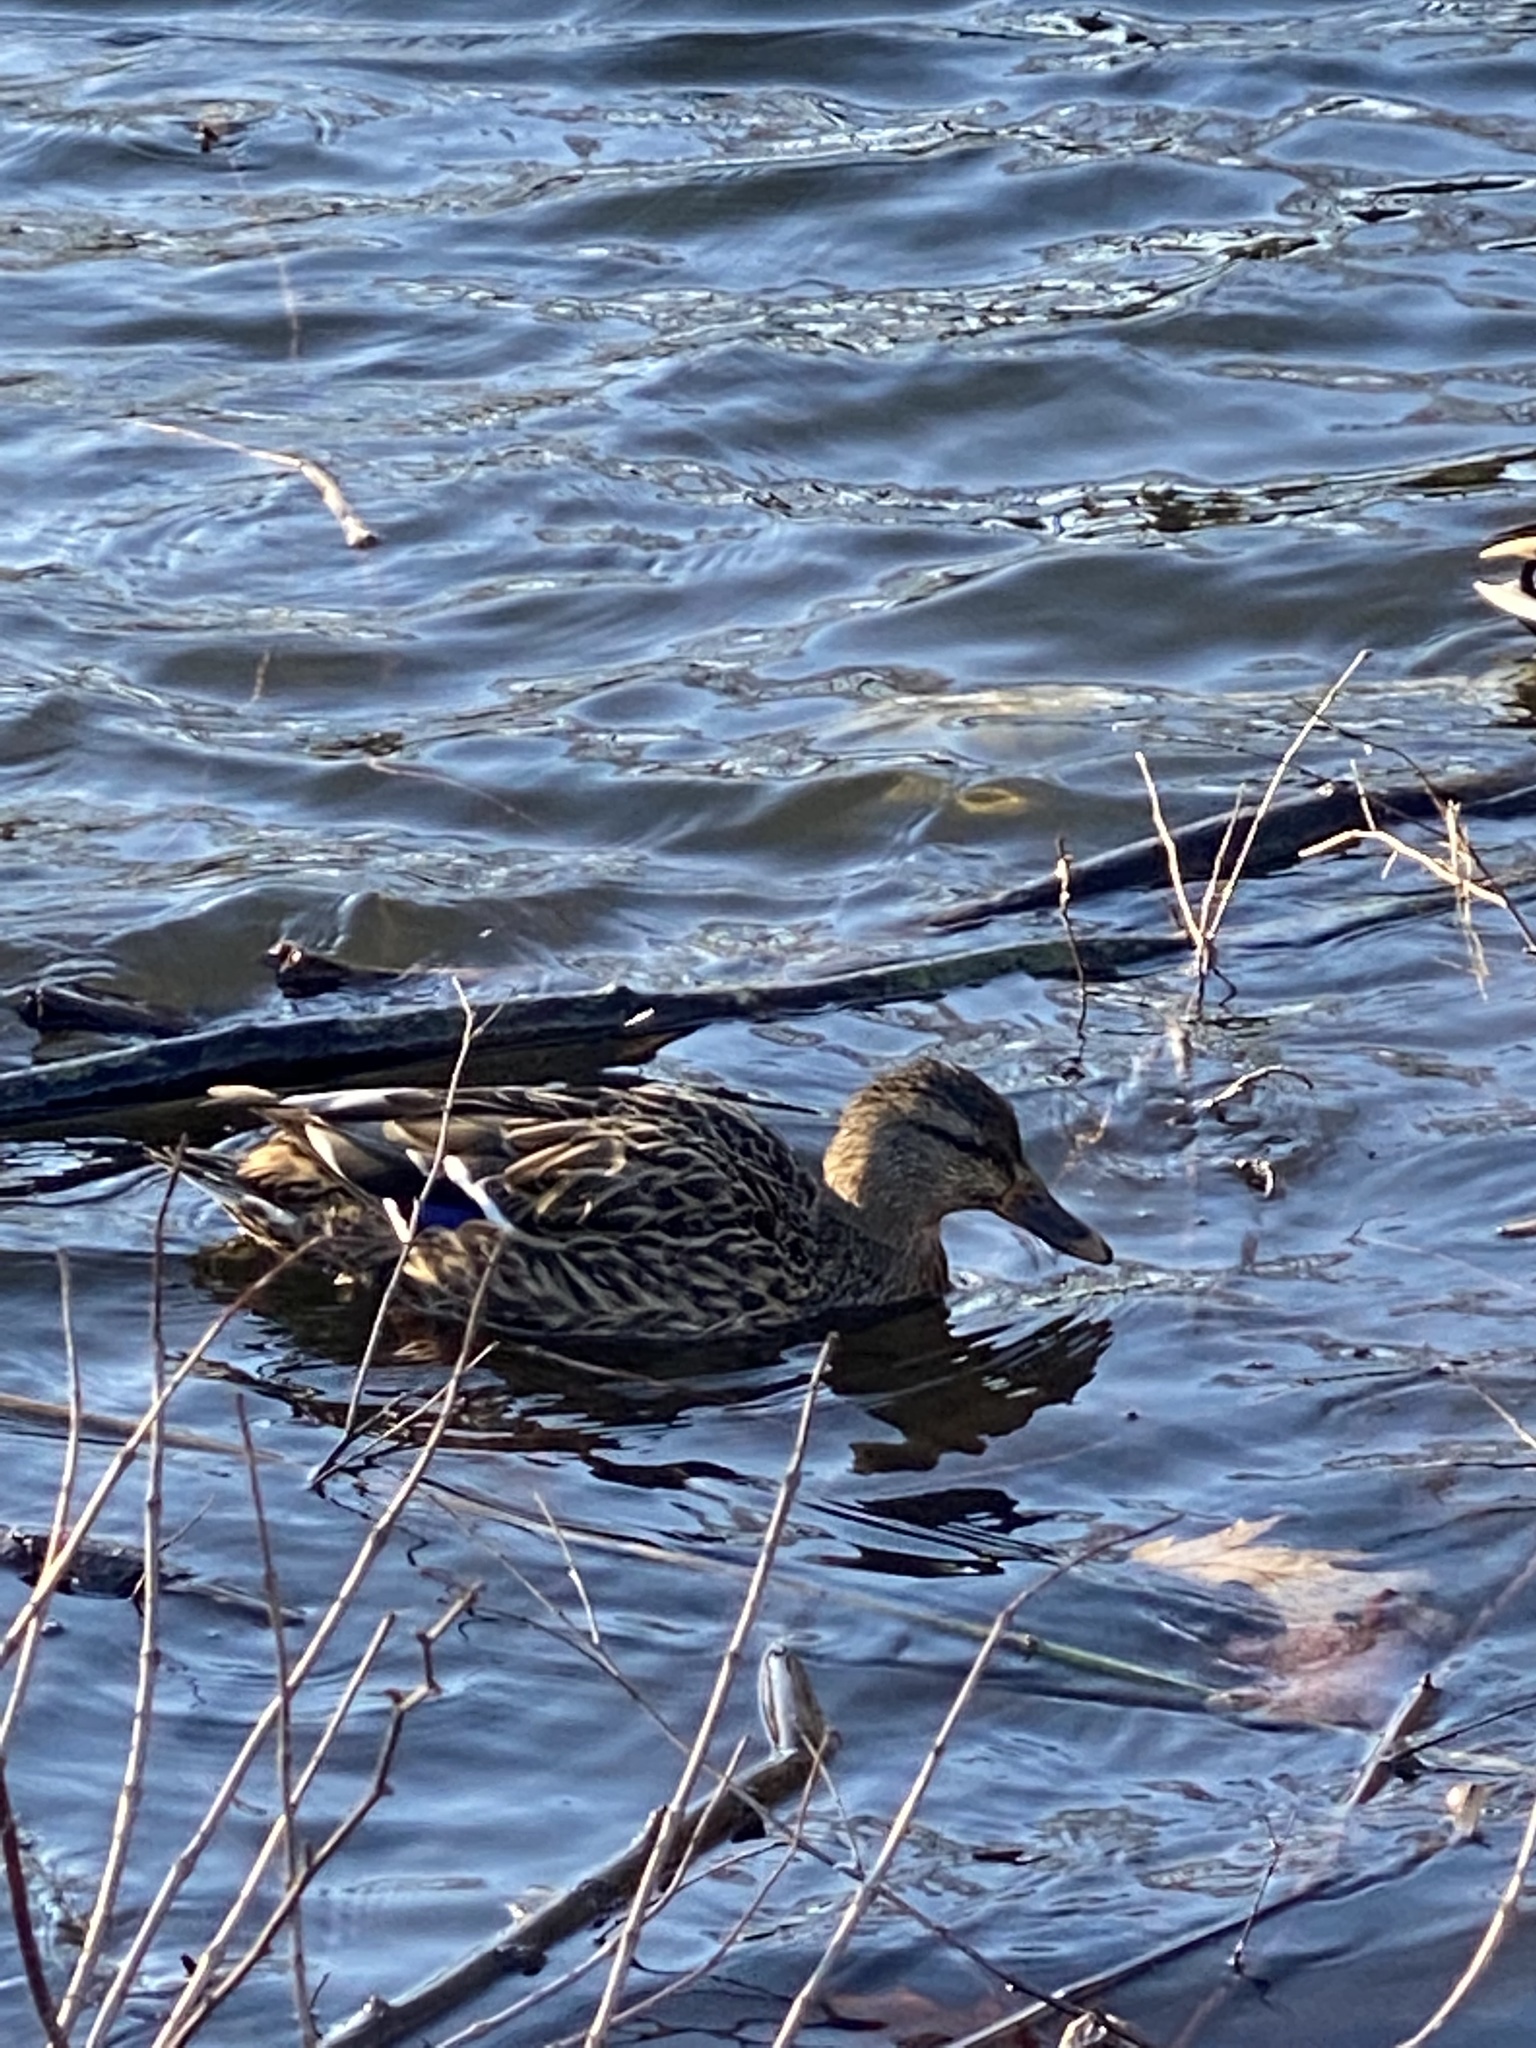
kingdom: Animalia
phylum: Chordata
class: Aves
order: Anseriformes
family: Anatidae
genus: Anas
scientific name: Anas platyrhynchos
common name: Mallard
